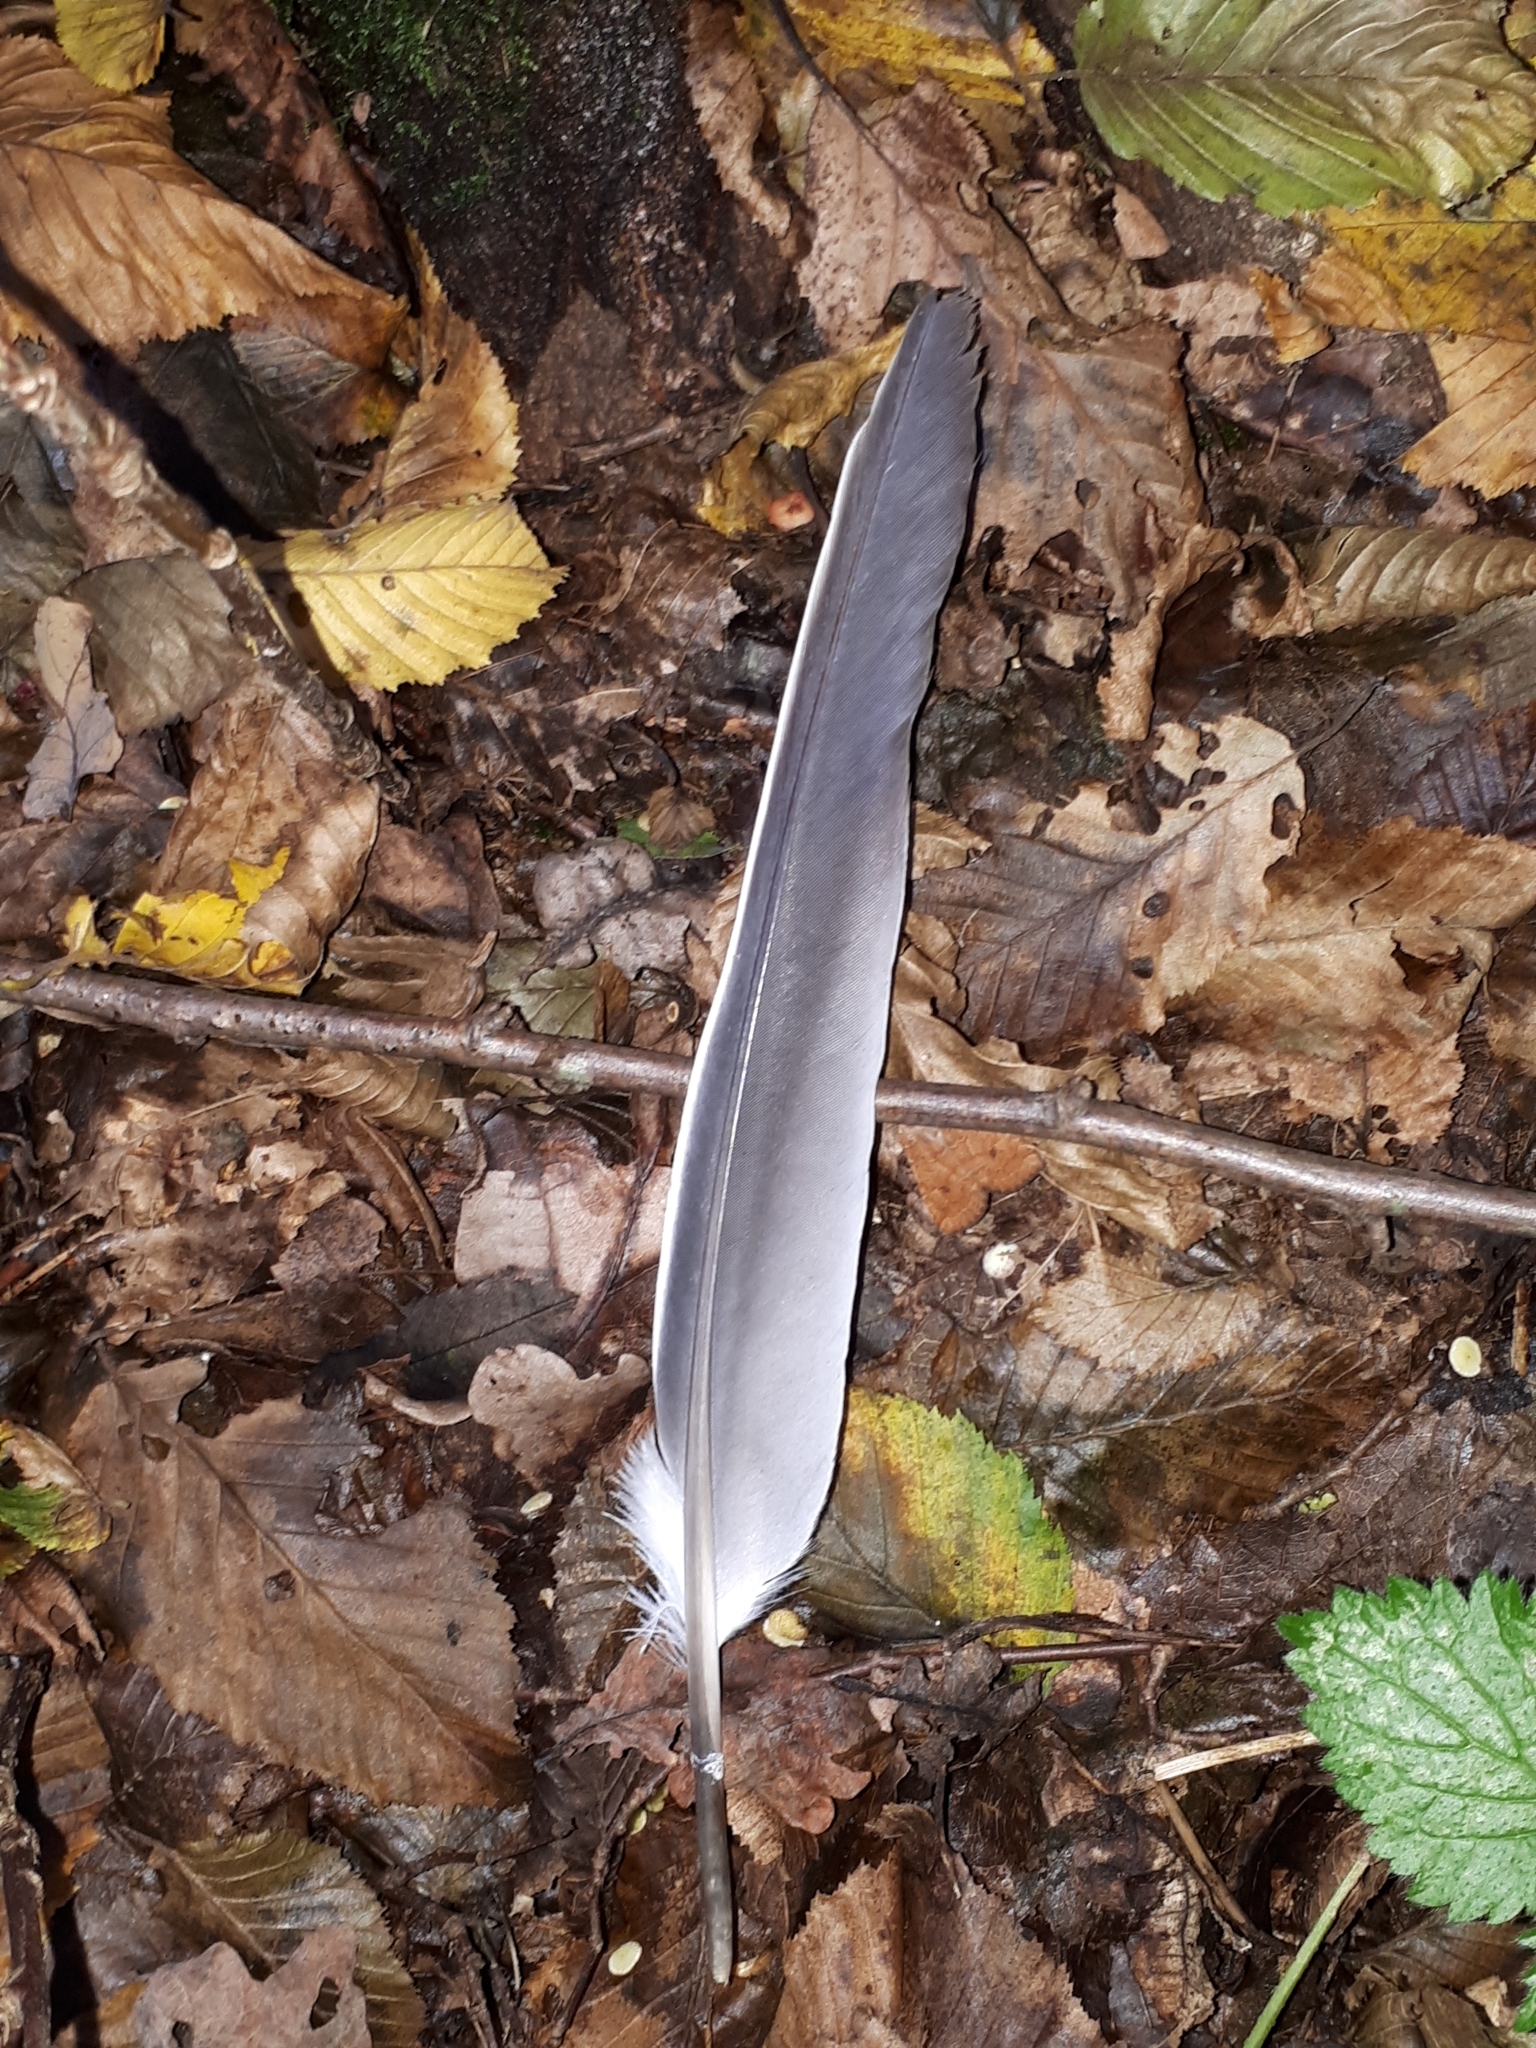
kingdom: Animalia
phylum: Chordata
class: Aves
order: Columbiformes
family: Columbidae
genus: Columba
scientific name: Columba palumbus
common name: Common wood pigeon
